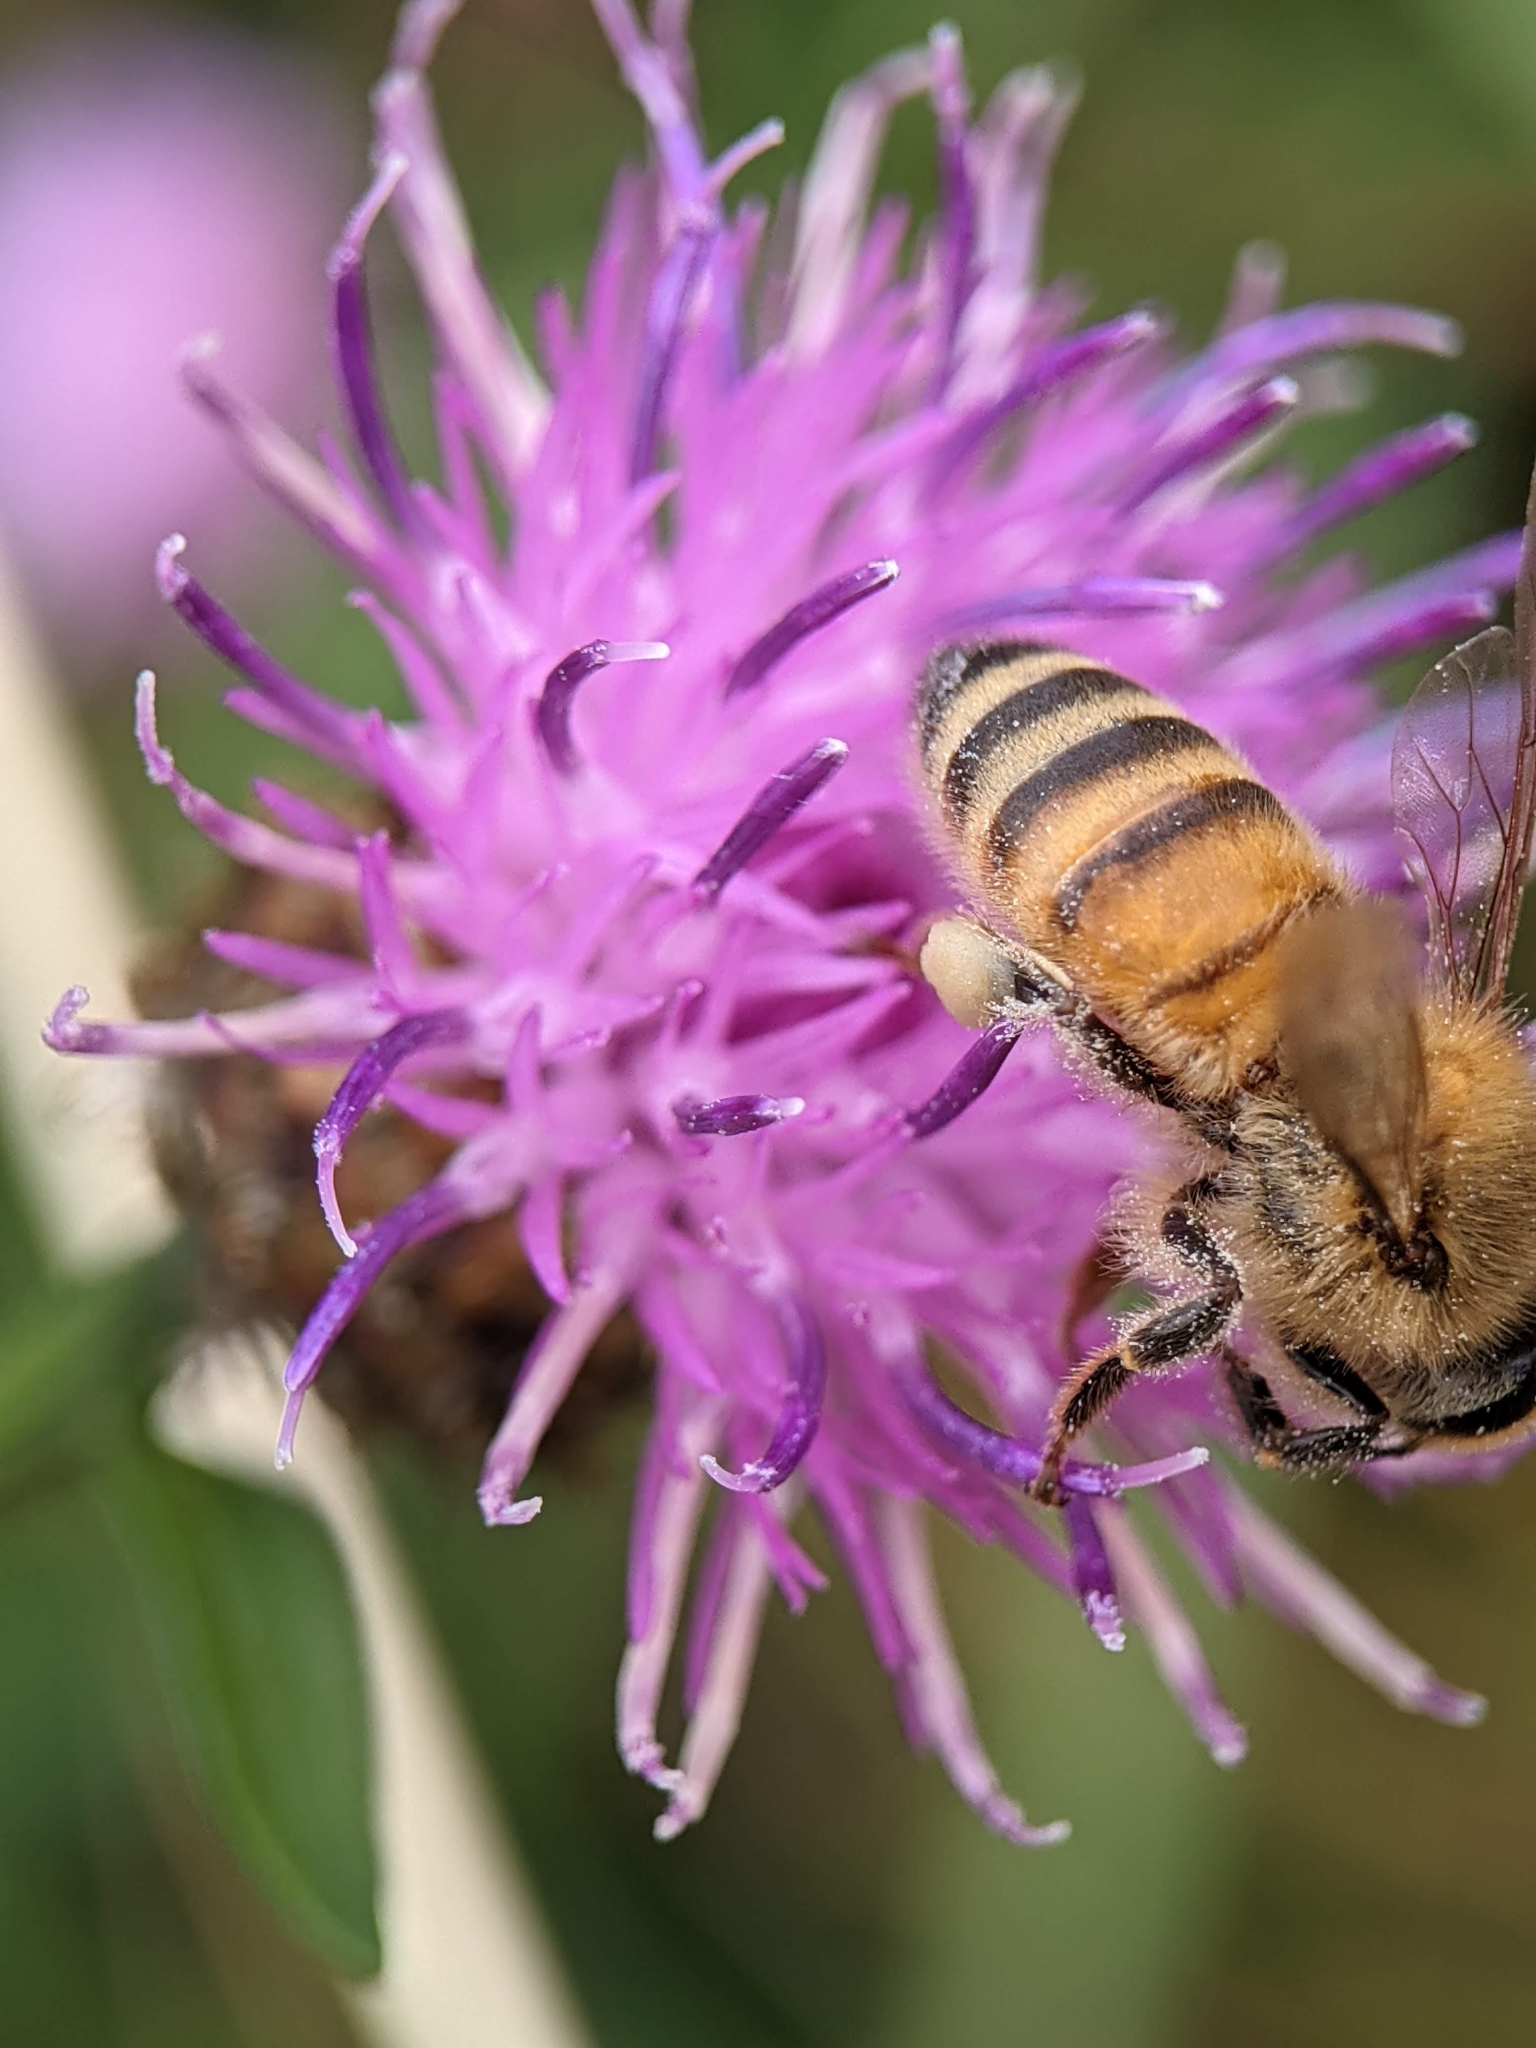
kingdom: Animalia
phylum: Arthropoda
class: Insecta
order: Hymenoptera
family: Apidae
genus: Apis
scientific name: Apis mellifera
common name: Honey bee
